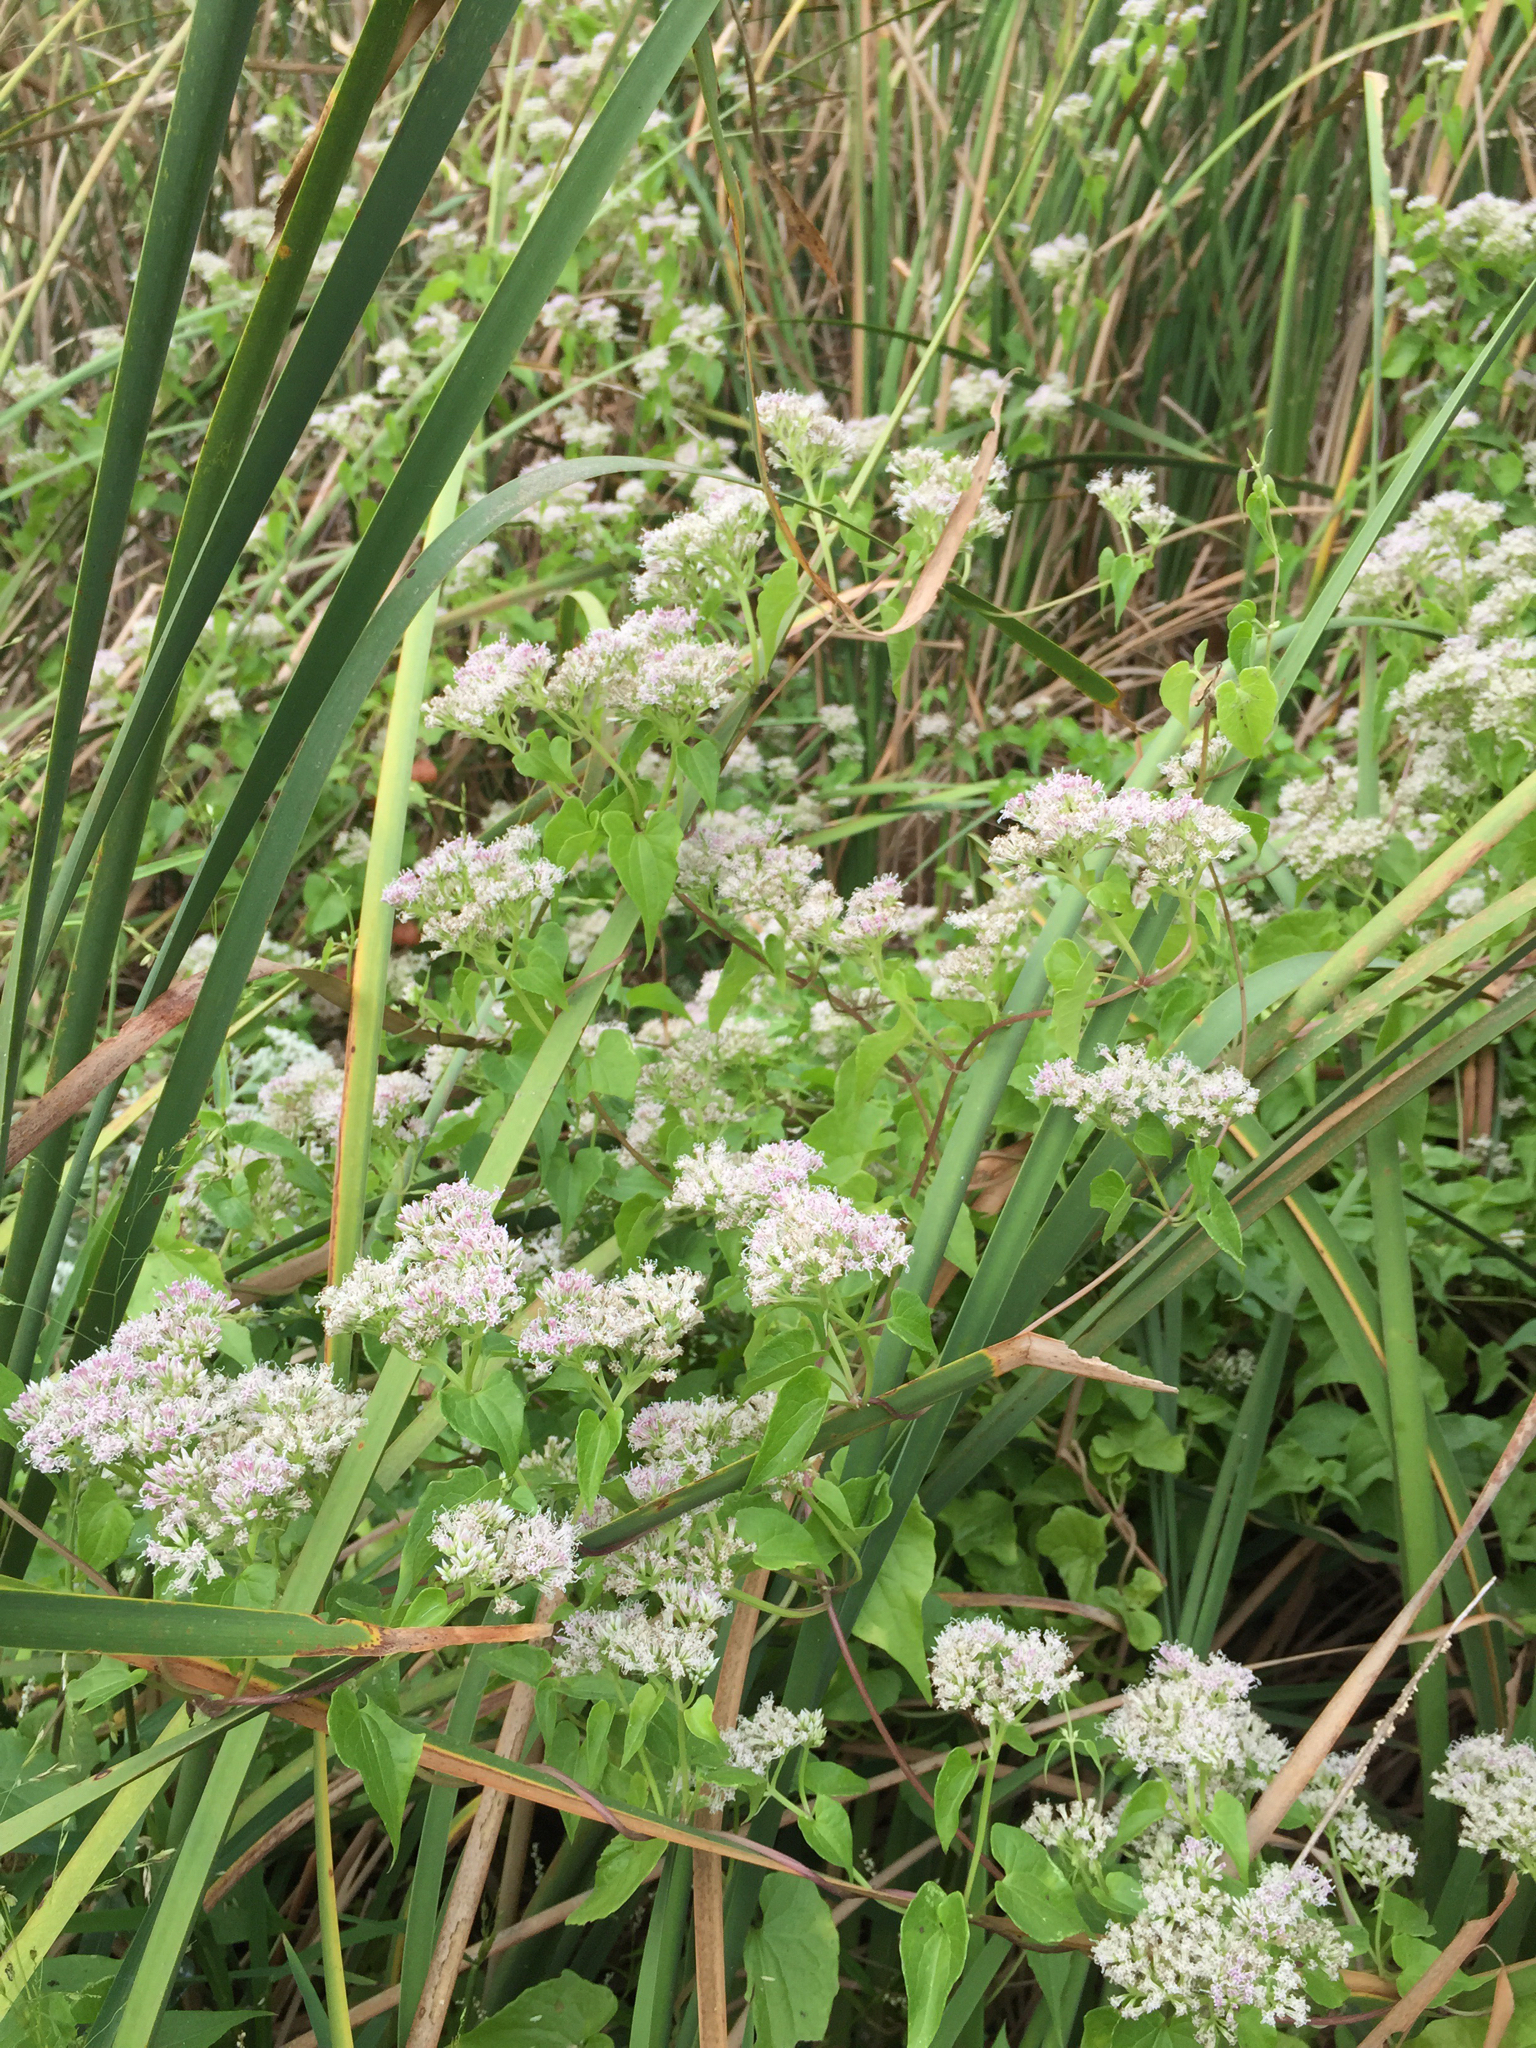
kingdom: Plantae
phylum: Tracheophyta
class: Magnoliopsida
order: Asterales
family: Asteraceae
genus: Mikania
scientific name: Mikania scandens
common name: Climbing hempvine
